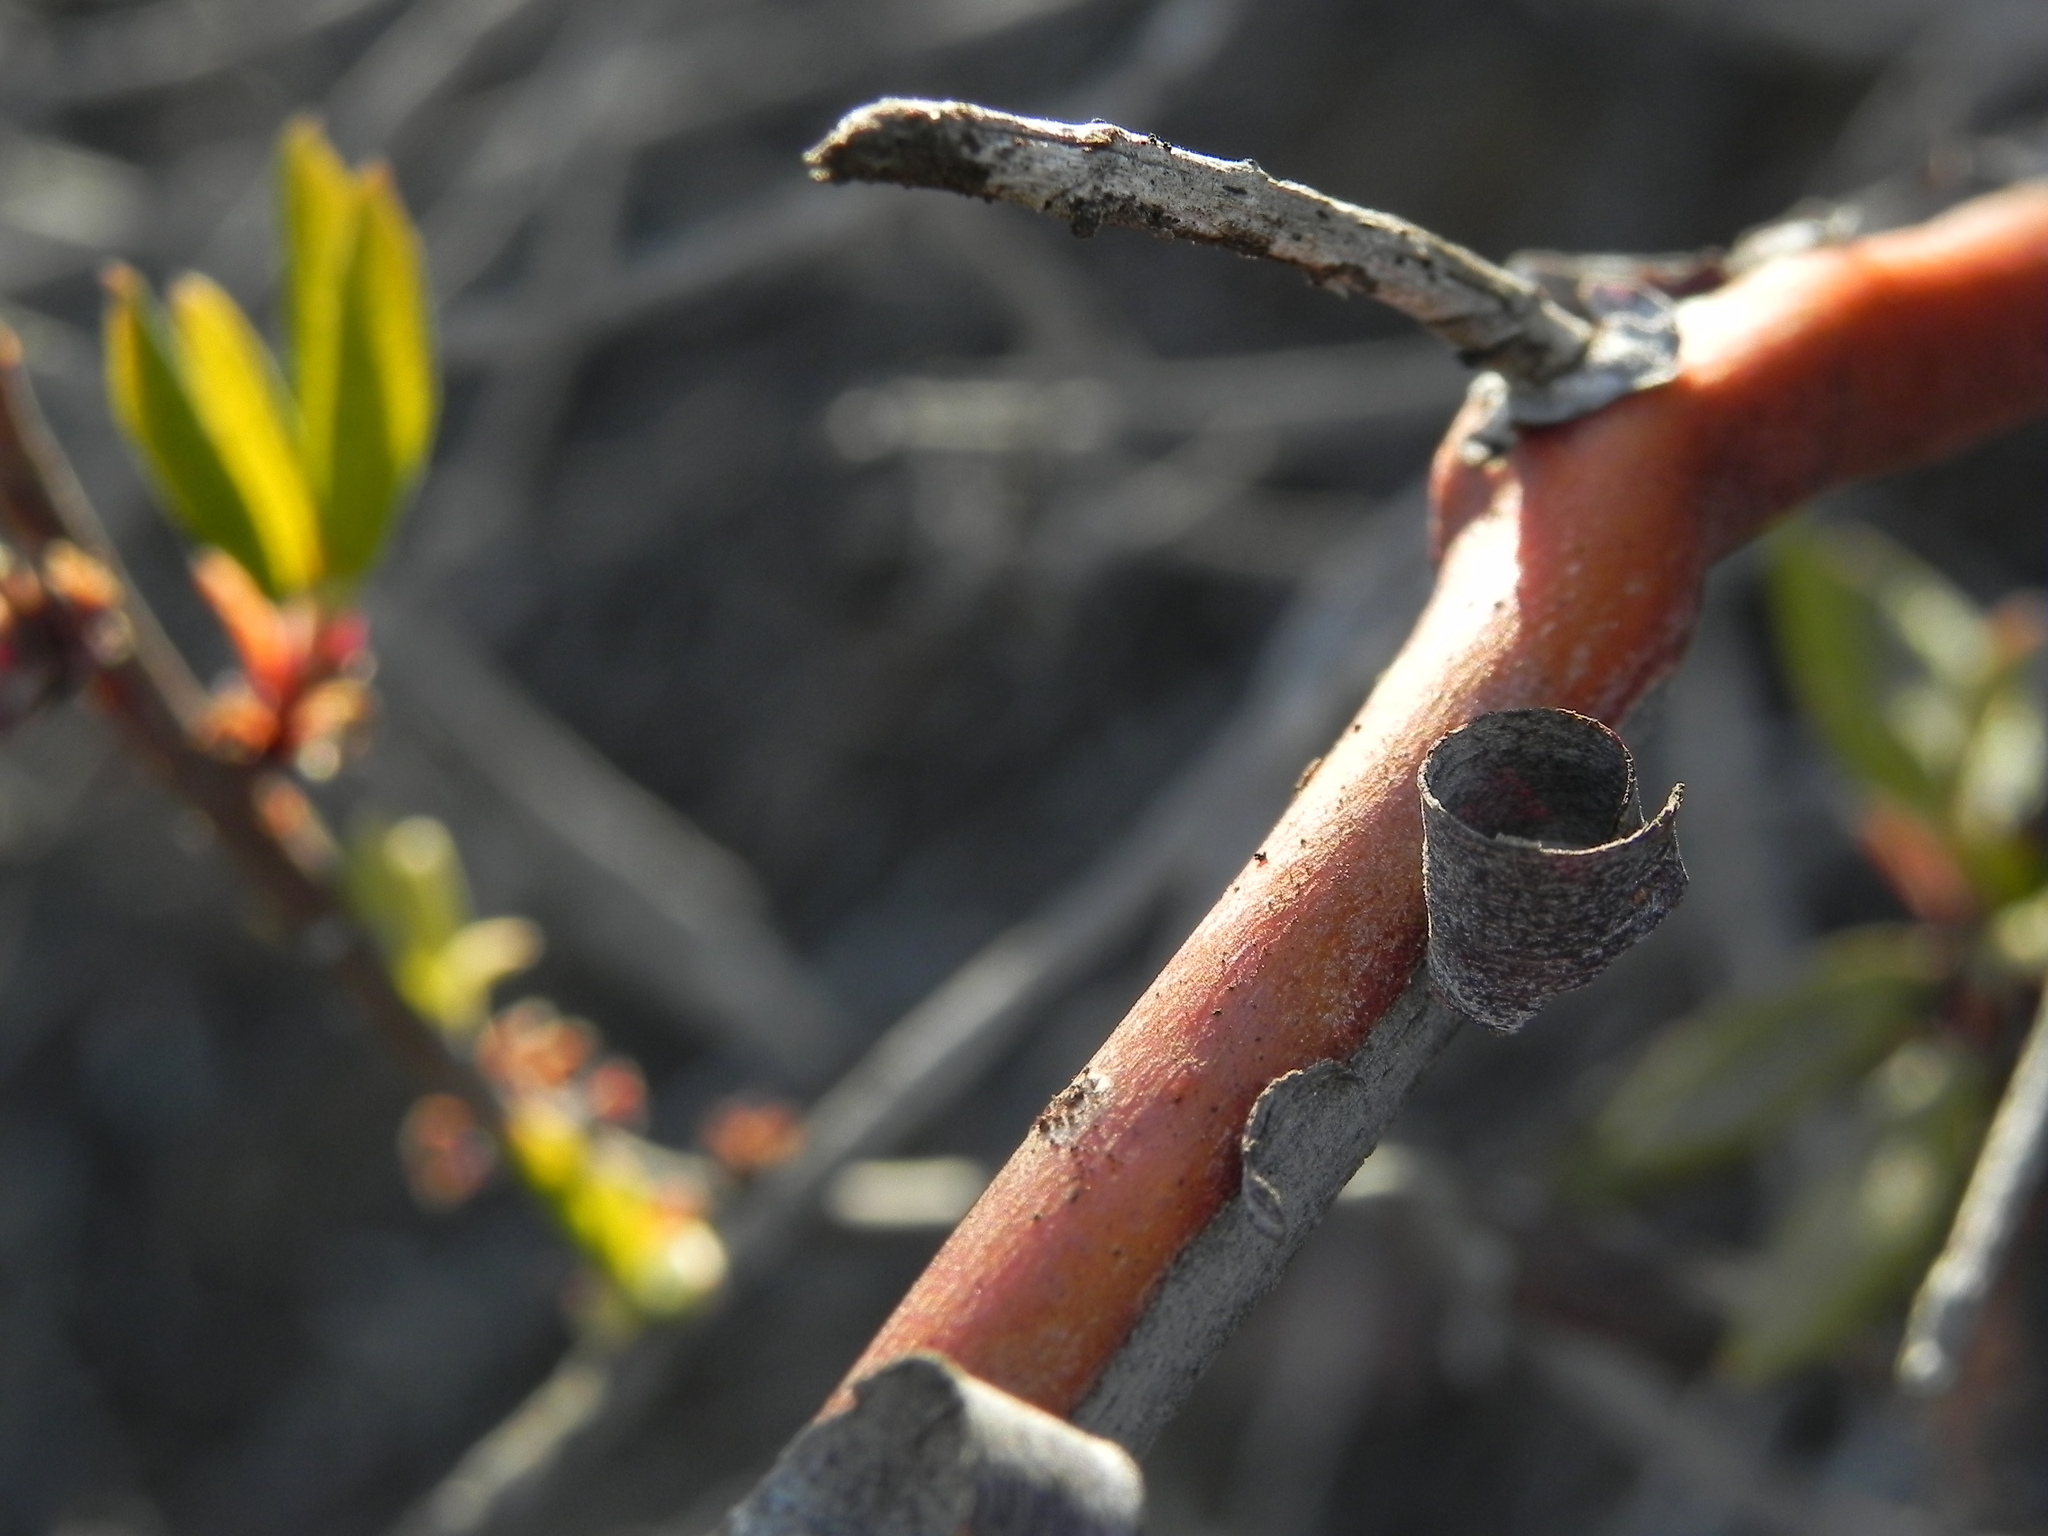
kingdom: Plantae
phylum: Tracheophyta
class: Magnoliopsida
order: Ericales
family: Ericaceae
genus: Arctostaphylos
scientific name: Arctostaphylos bicolor
